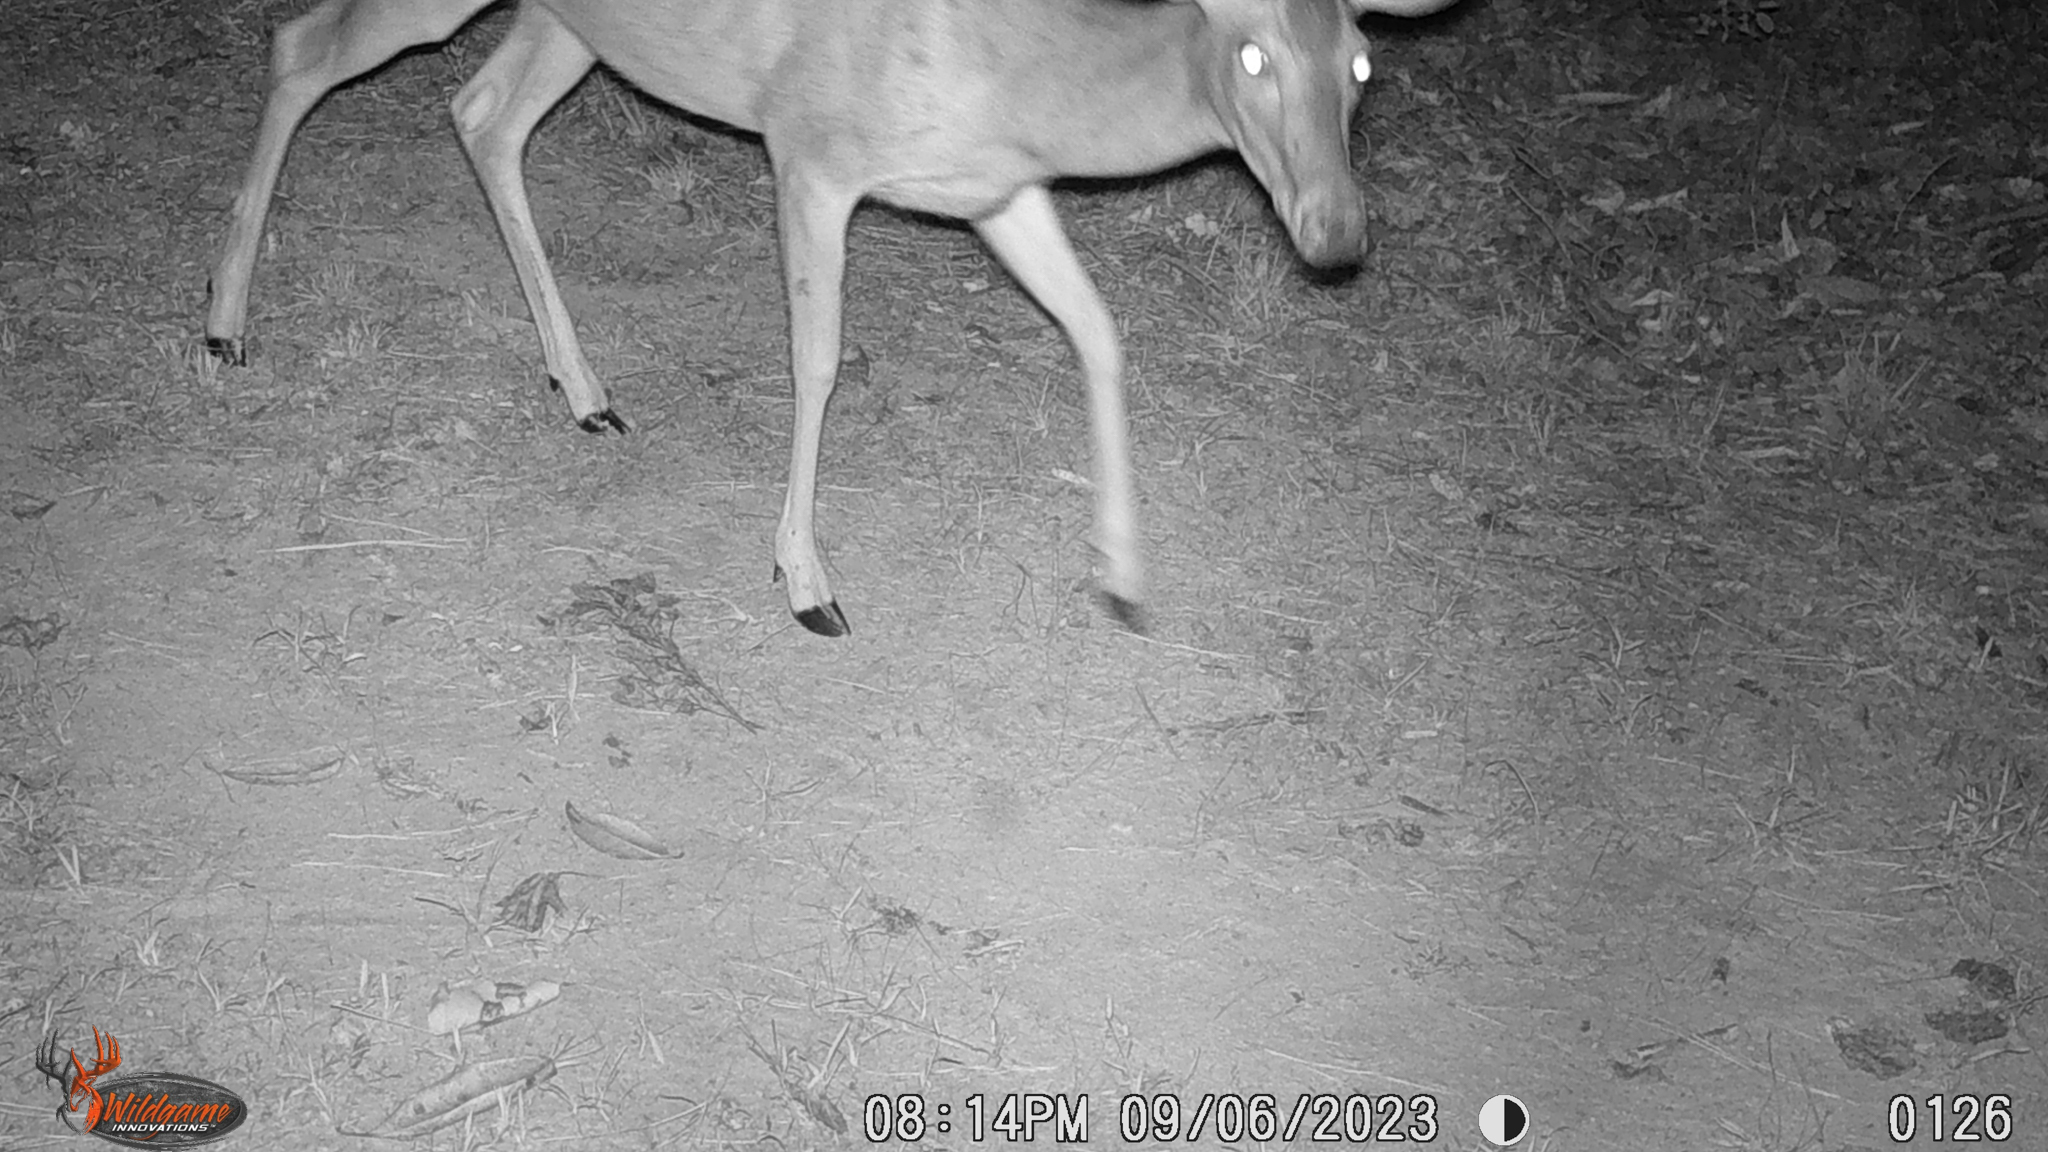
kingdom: Animalia
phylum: Chordata
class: Mammalia
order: Artiodactyla
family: Cervidae
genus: Odocoileus
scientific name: Odocoileus virginianus
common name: White-tailed deer
